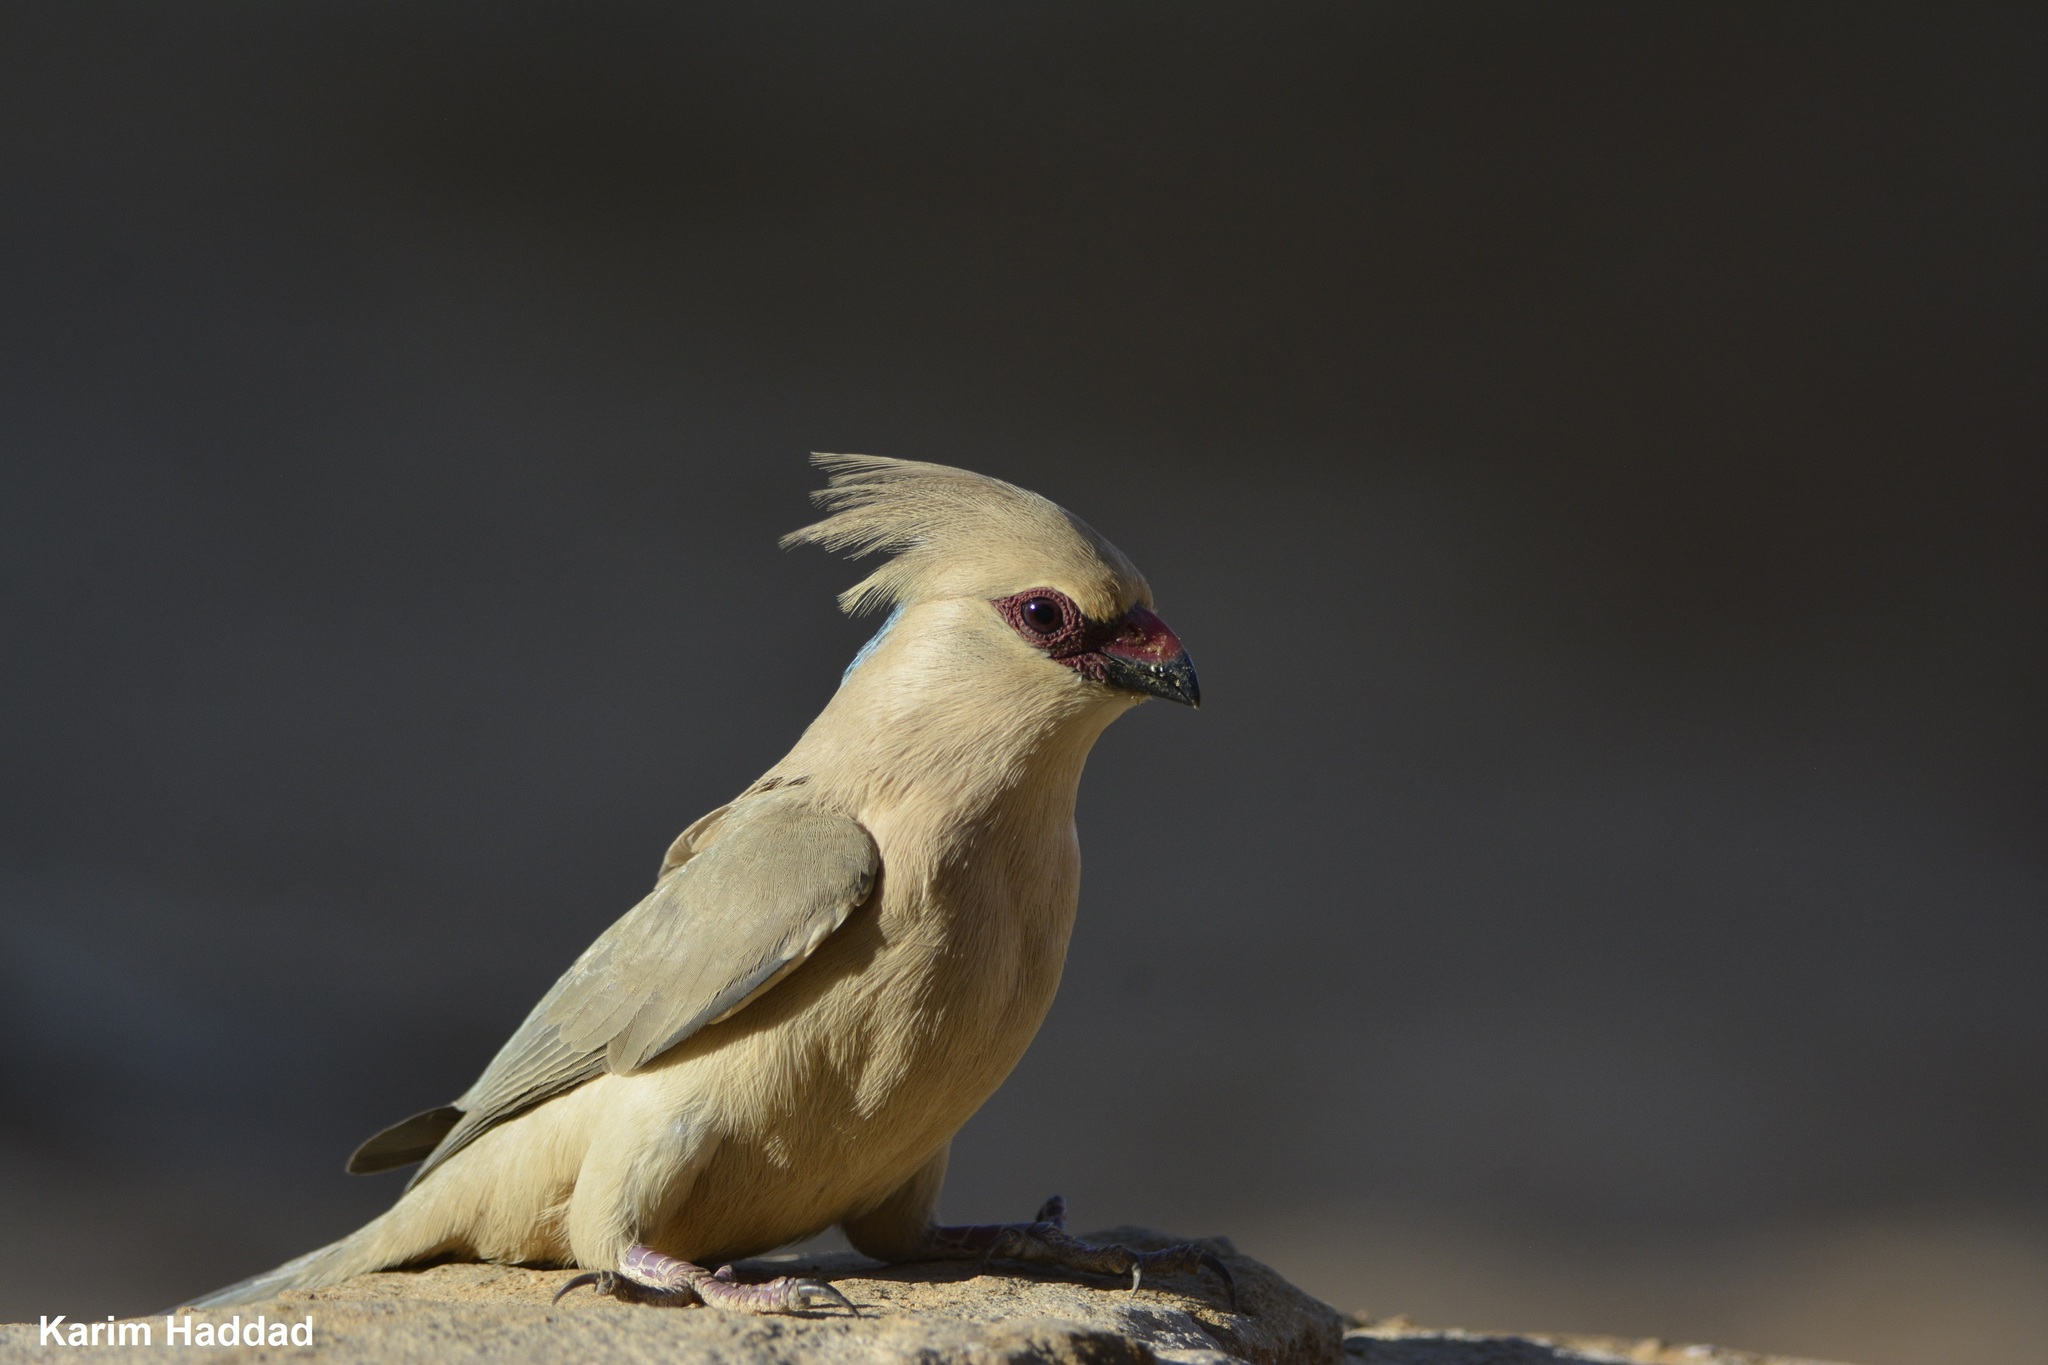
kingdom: Animalia
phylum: Chordata
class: Aves
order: Coliiformes
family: Coliidae
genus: Urocolius
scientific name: Urocolius macrourus
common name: Blue-naped mousebird
